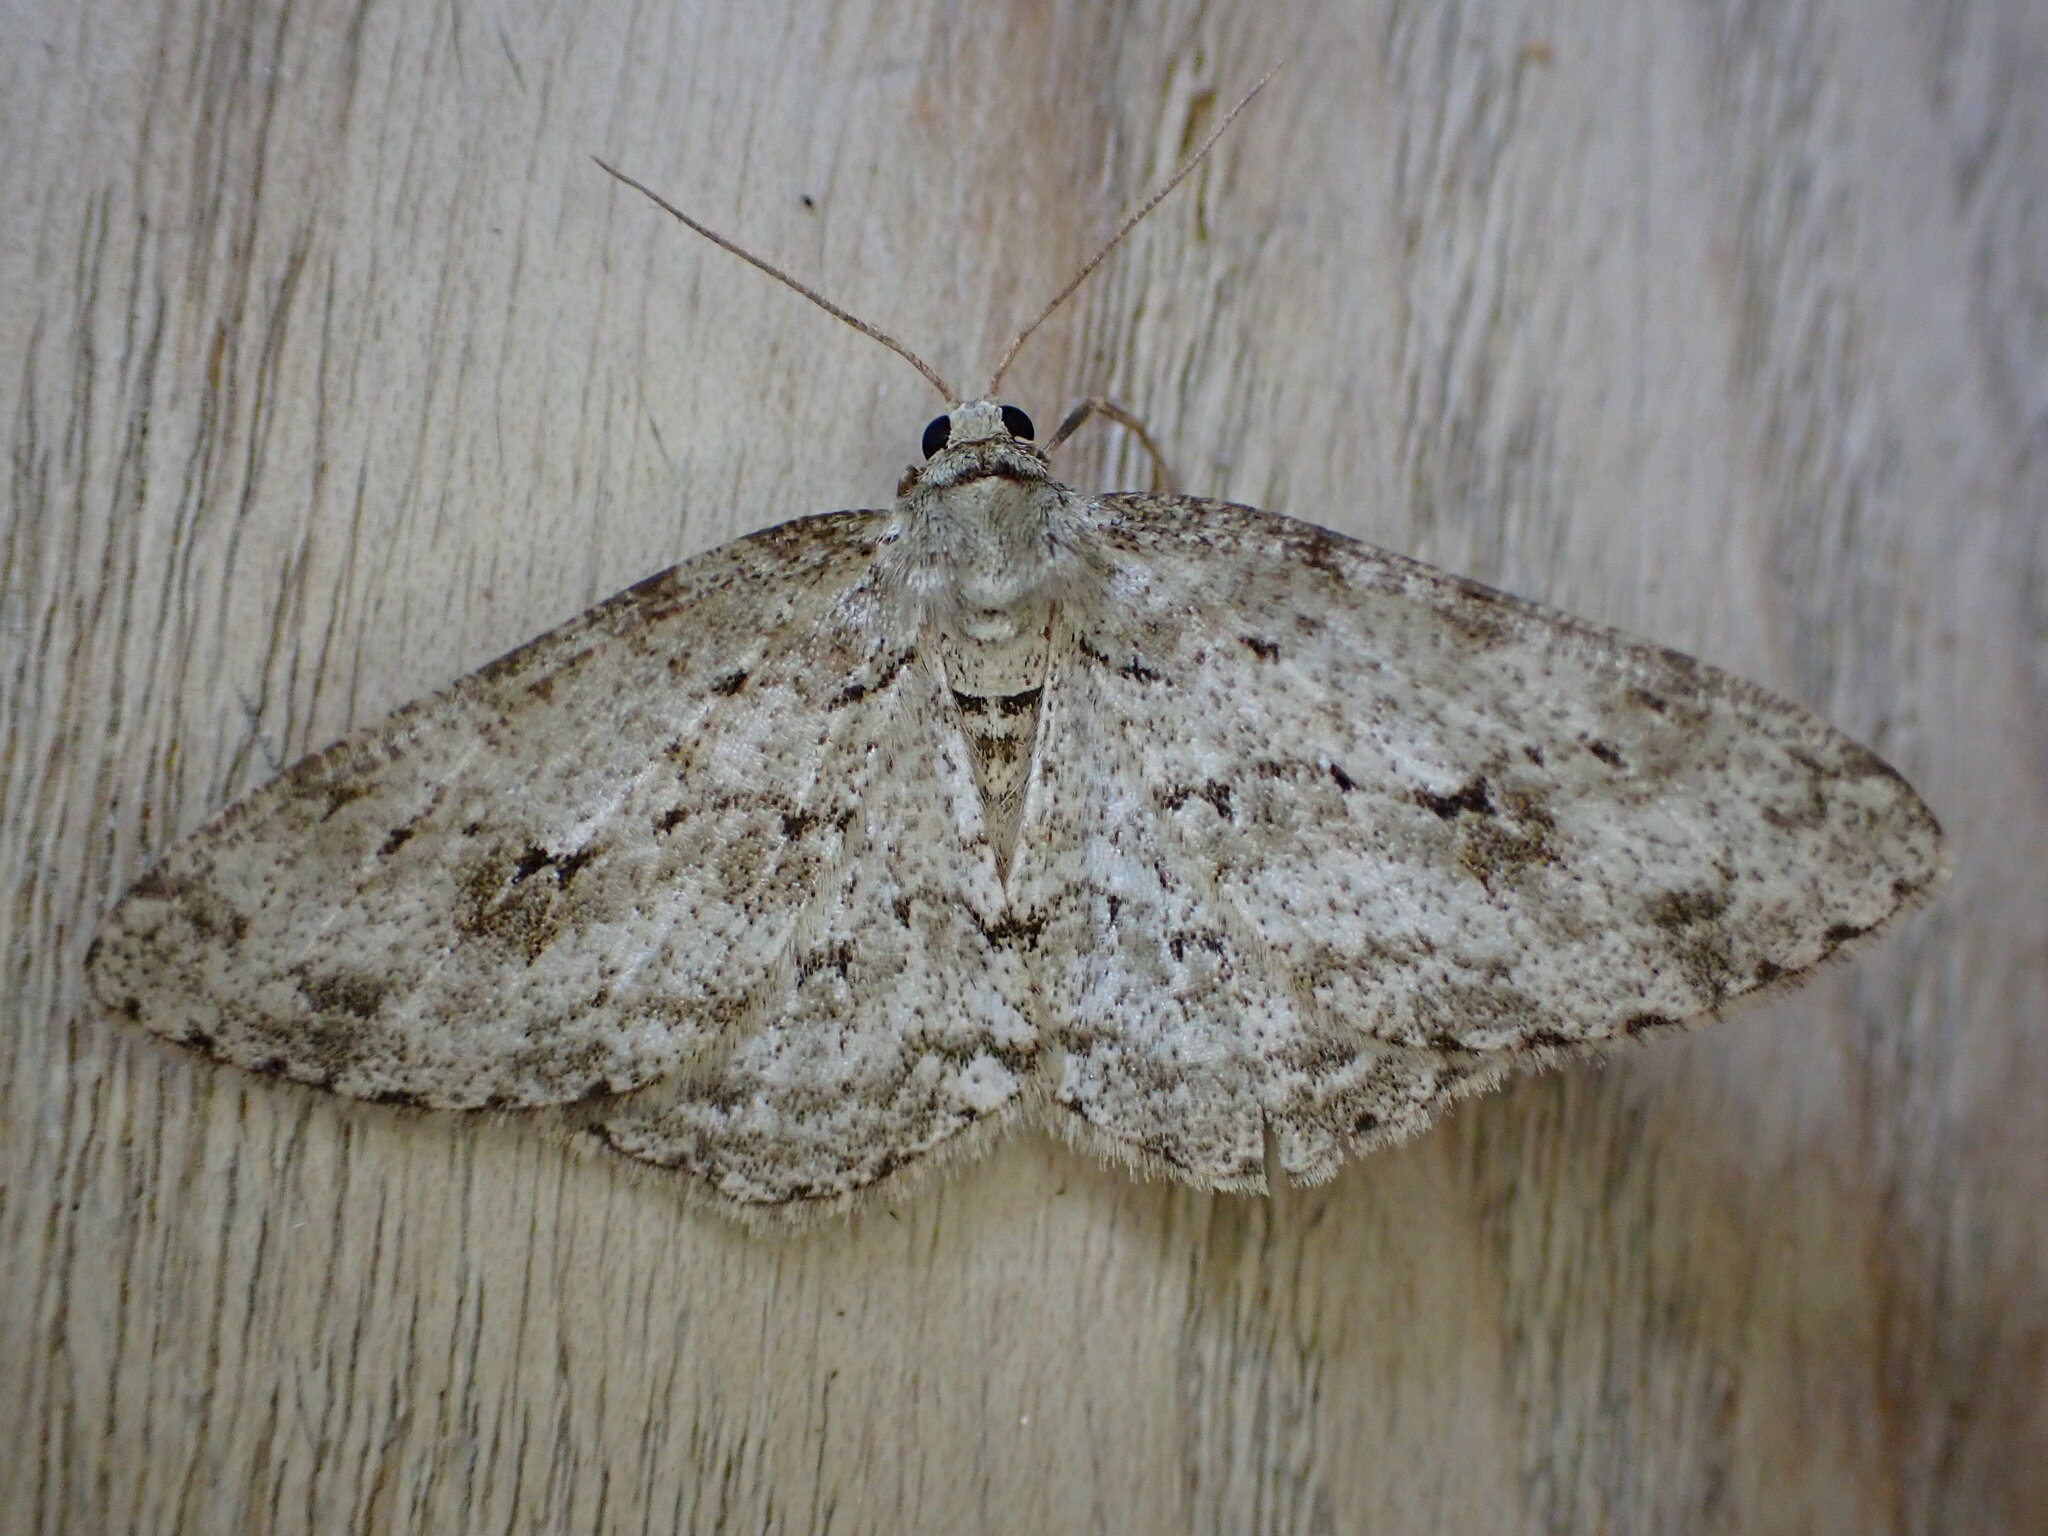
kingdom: Animalia
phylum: Arthropoda
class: Insecta
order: Lepidoptera
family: Geometridae
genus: Ectropis
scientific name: Ectropis crepuscularia
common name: Engrailed
